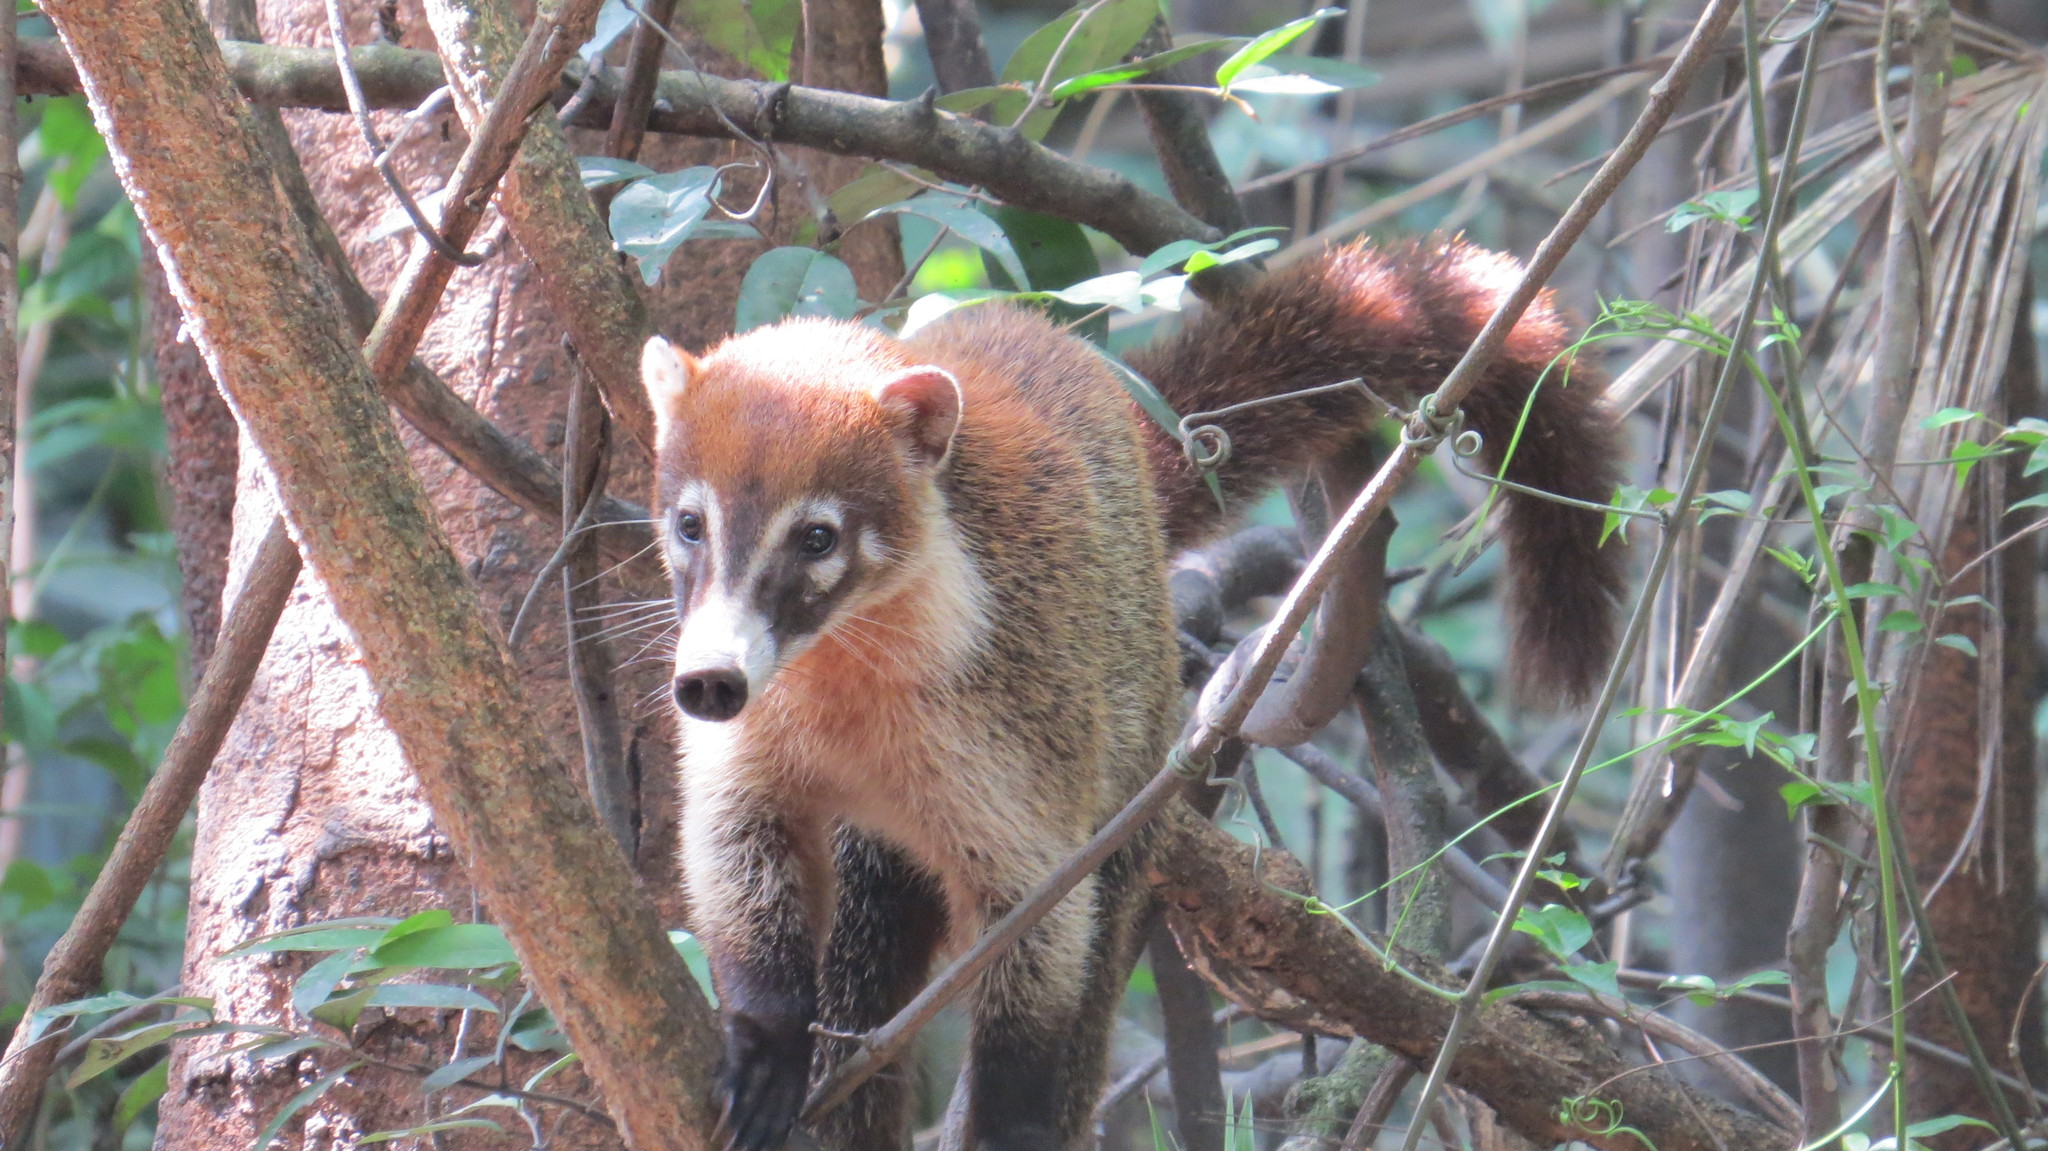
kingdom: Animalia
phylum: Chordata
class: Mammalia
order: Carnivora
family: Procyonidae
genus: Nasua
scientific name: Nasua narica
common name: White-nosed coati
